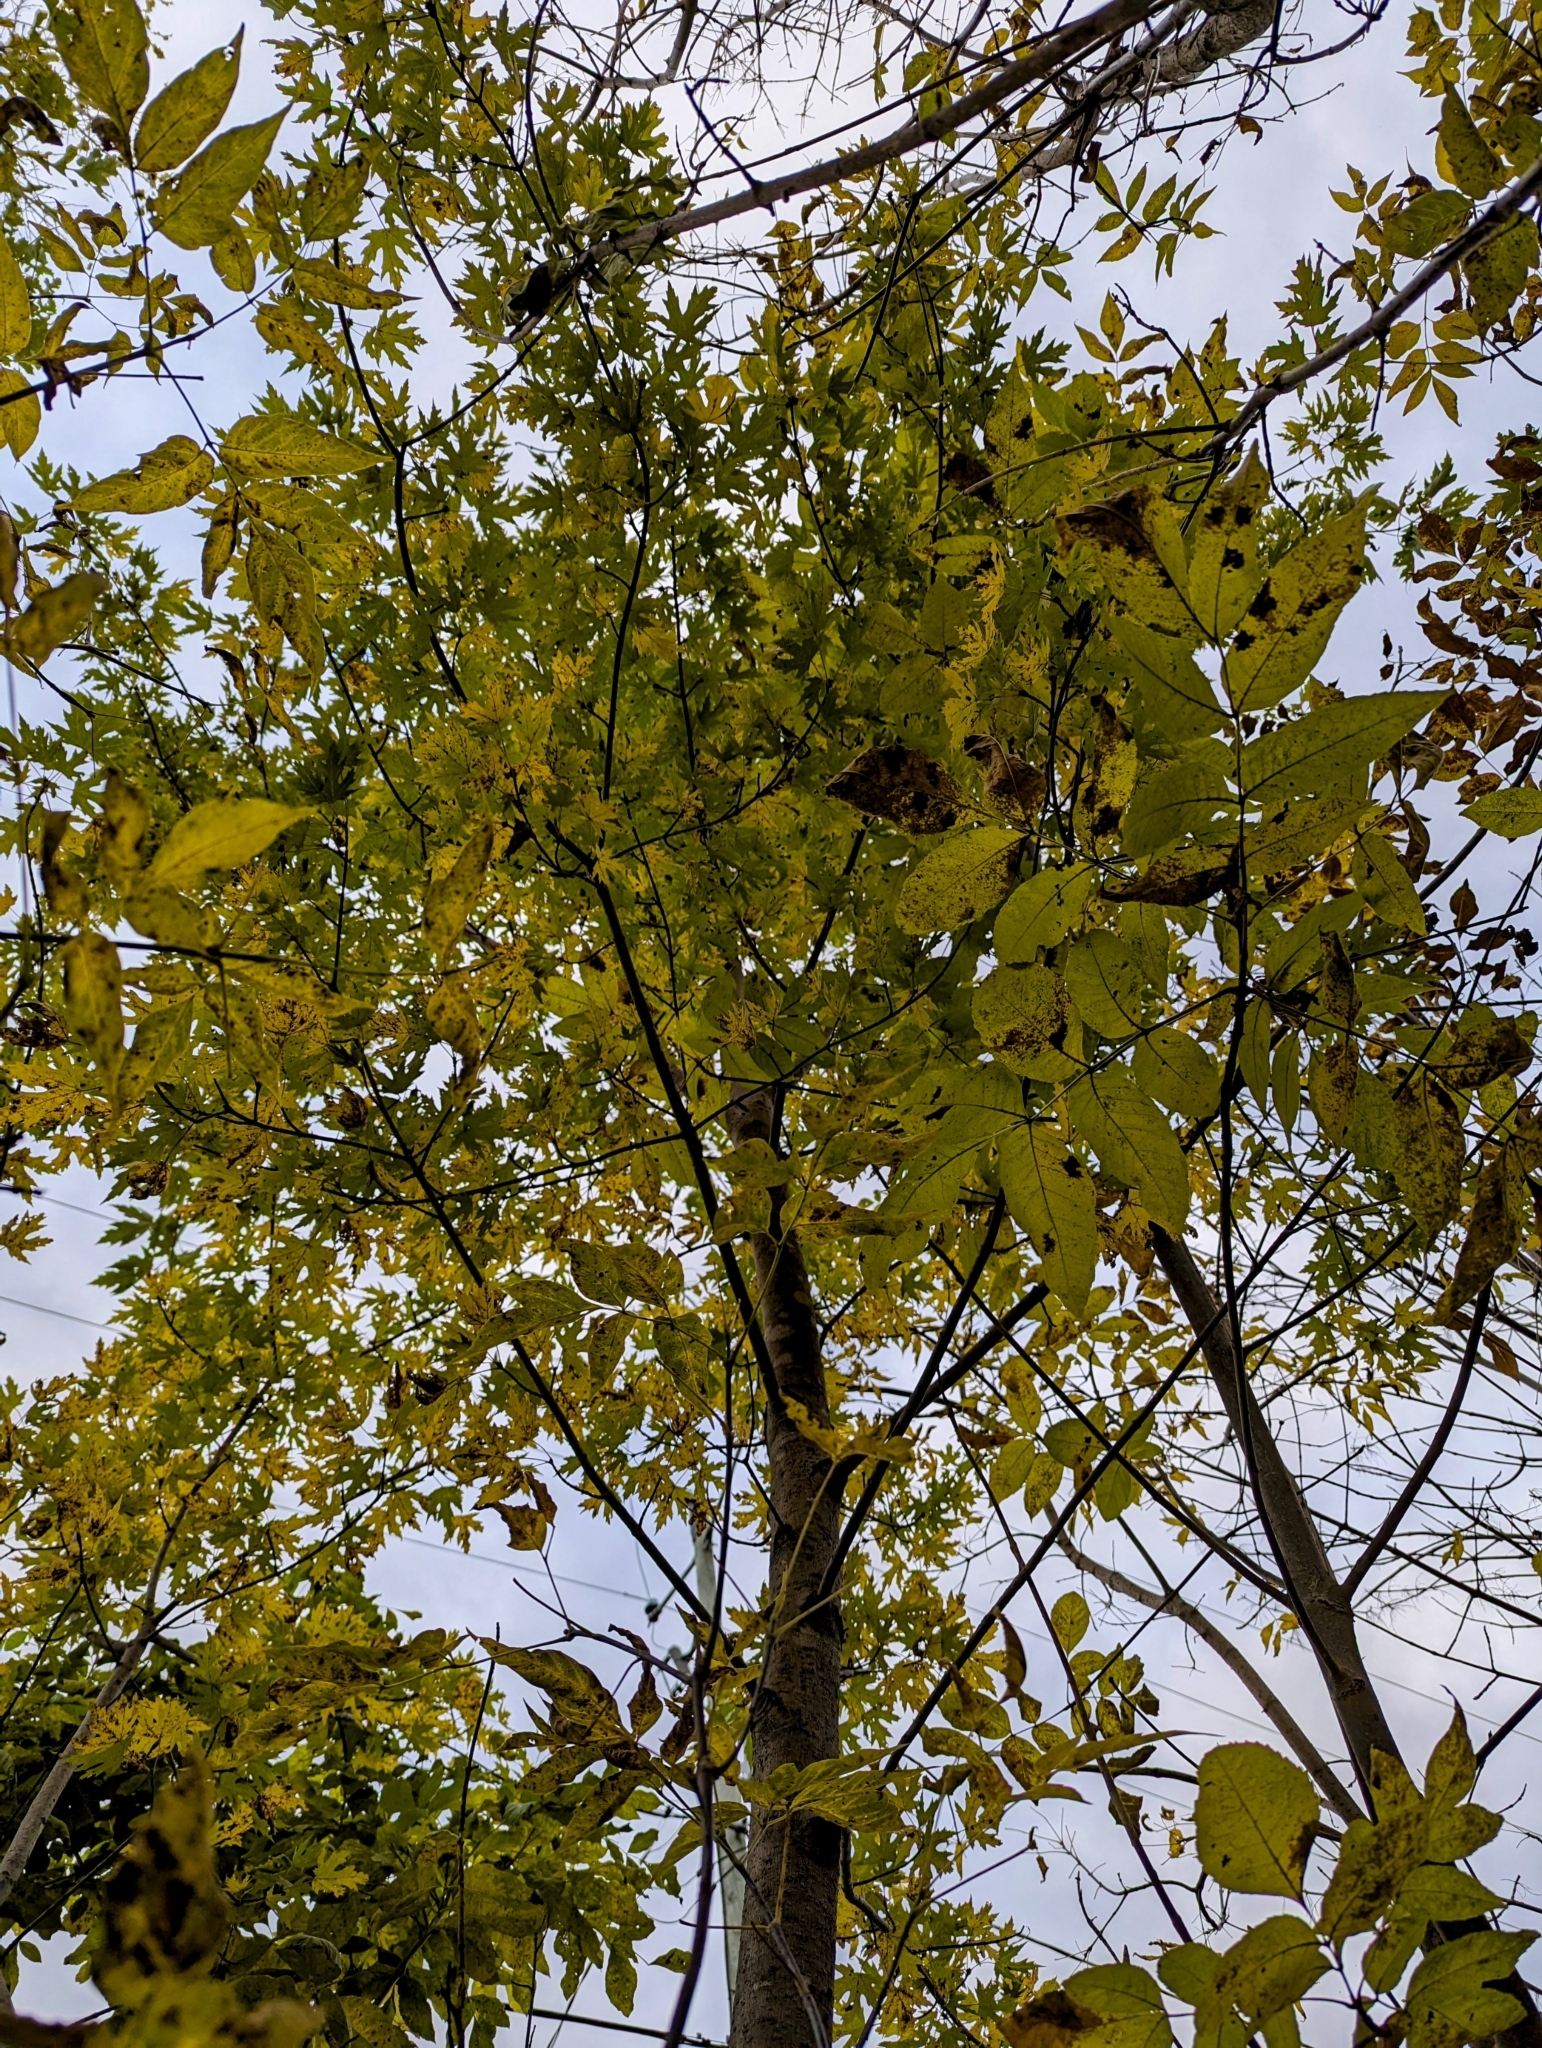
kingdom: Plantae
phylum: Tracheophyta
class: Magnoliopsida
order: Sapindales
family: Sapindaceae
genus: Acer
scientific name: Acer saccharinum
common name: Silver maple
